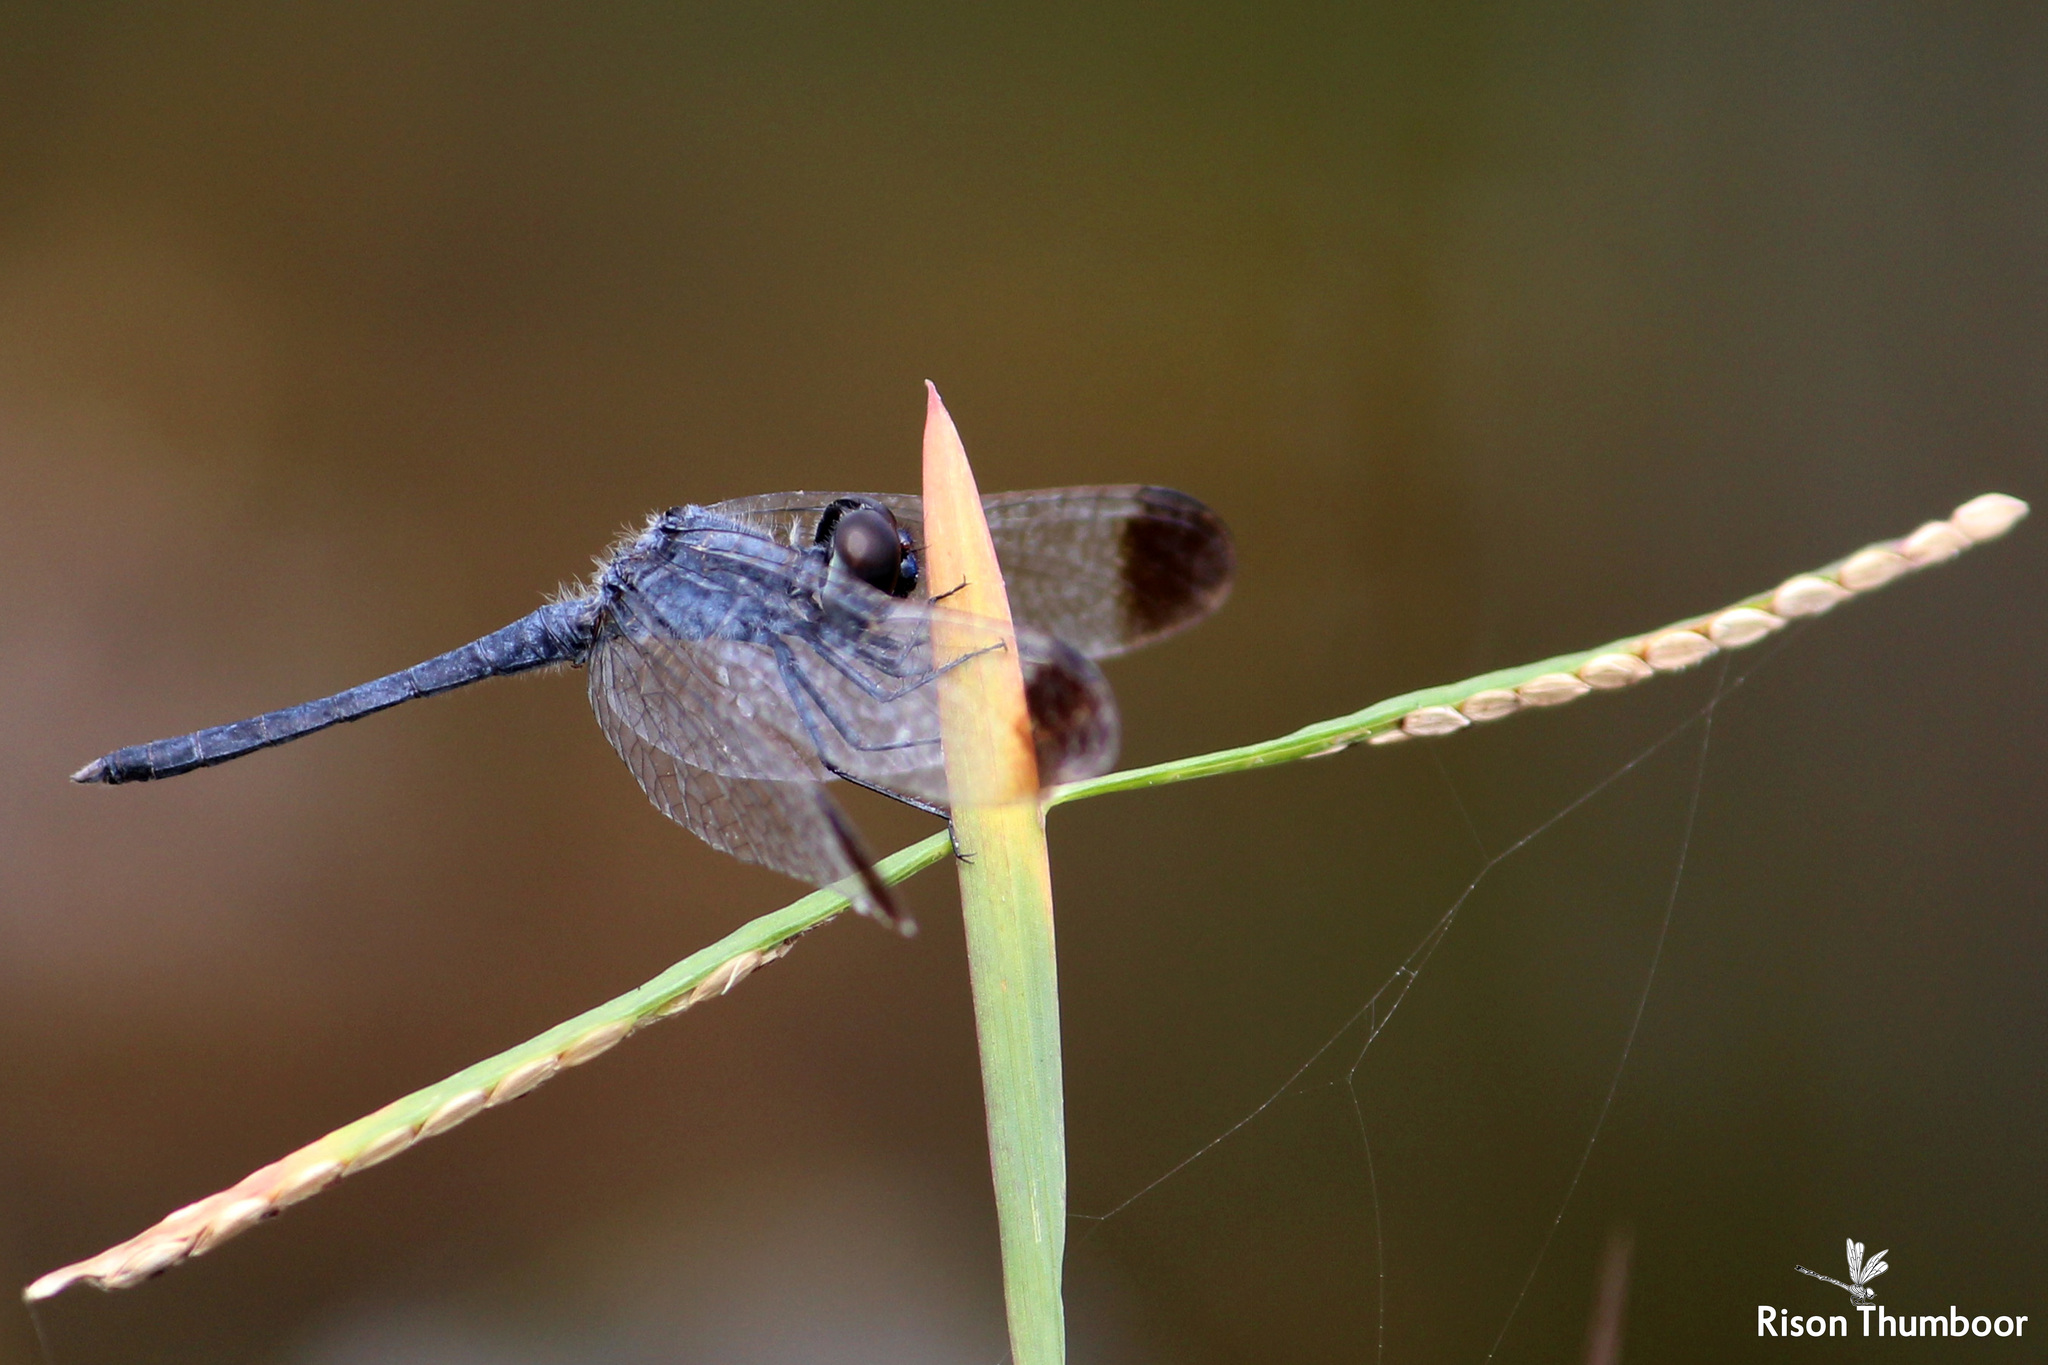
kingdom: Animalia
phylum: Arthropoda
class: Insecta
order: Odonata
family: Libellulidae
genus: Diplacodes
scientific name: Diplacodes nebulosa
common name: Black-tipped percher
